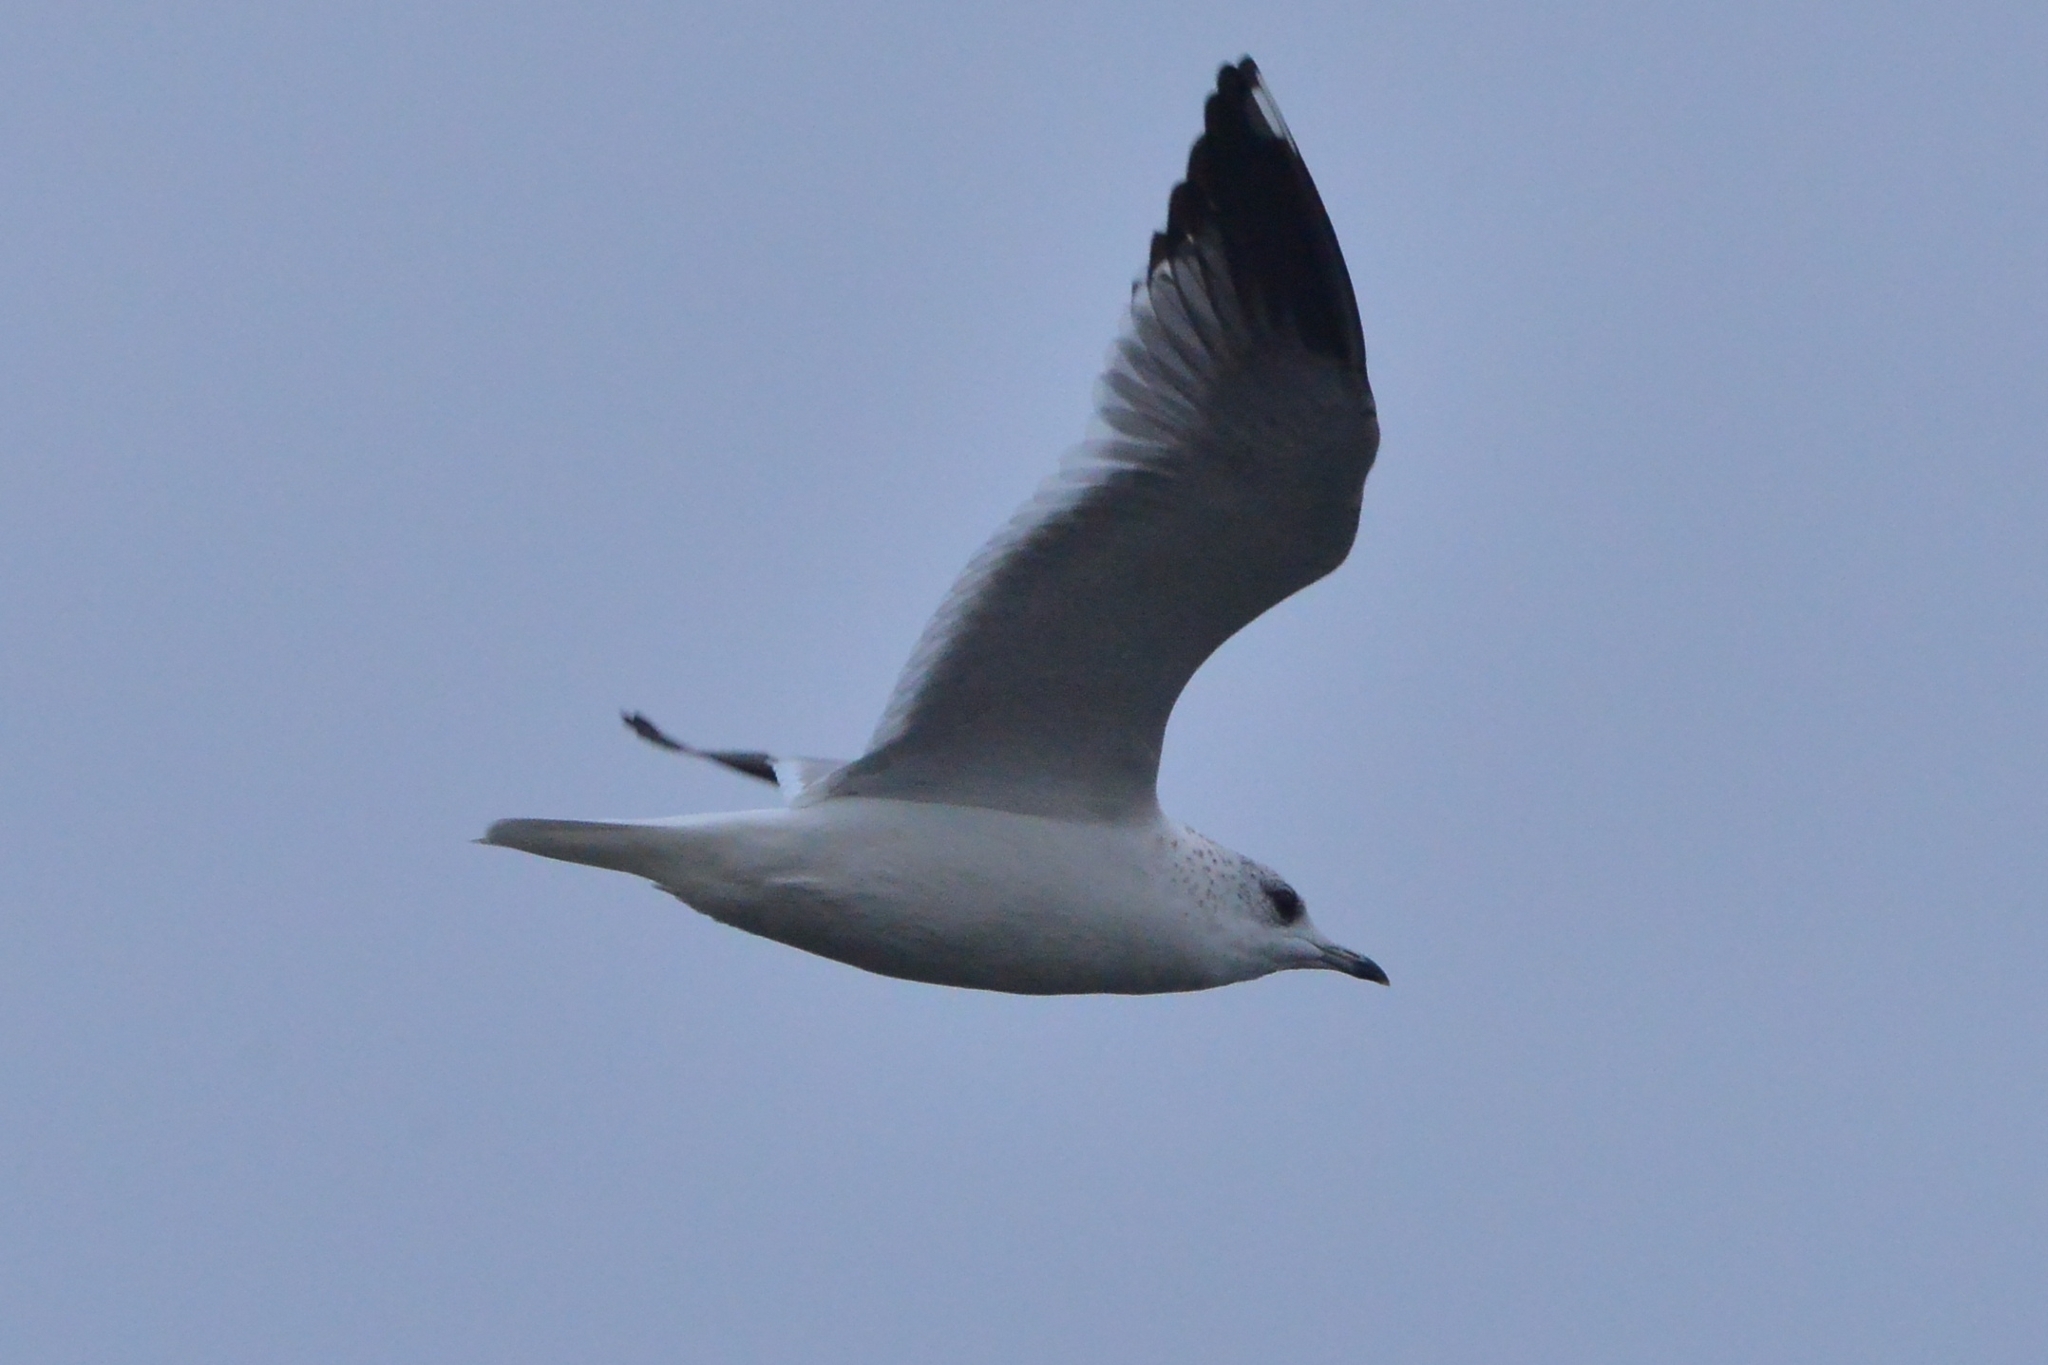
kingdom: Animalia
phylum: Chordata
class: Aves
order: Charadriiformes
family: Laridae
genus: Larus
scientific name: Larus canus
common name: Mew gull
